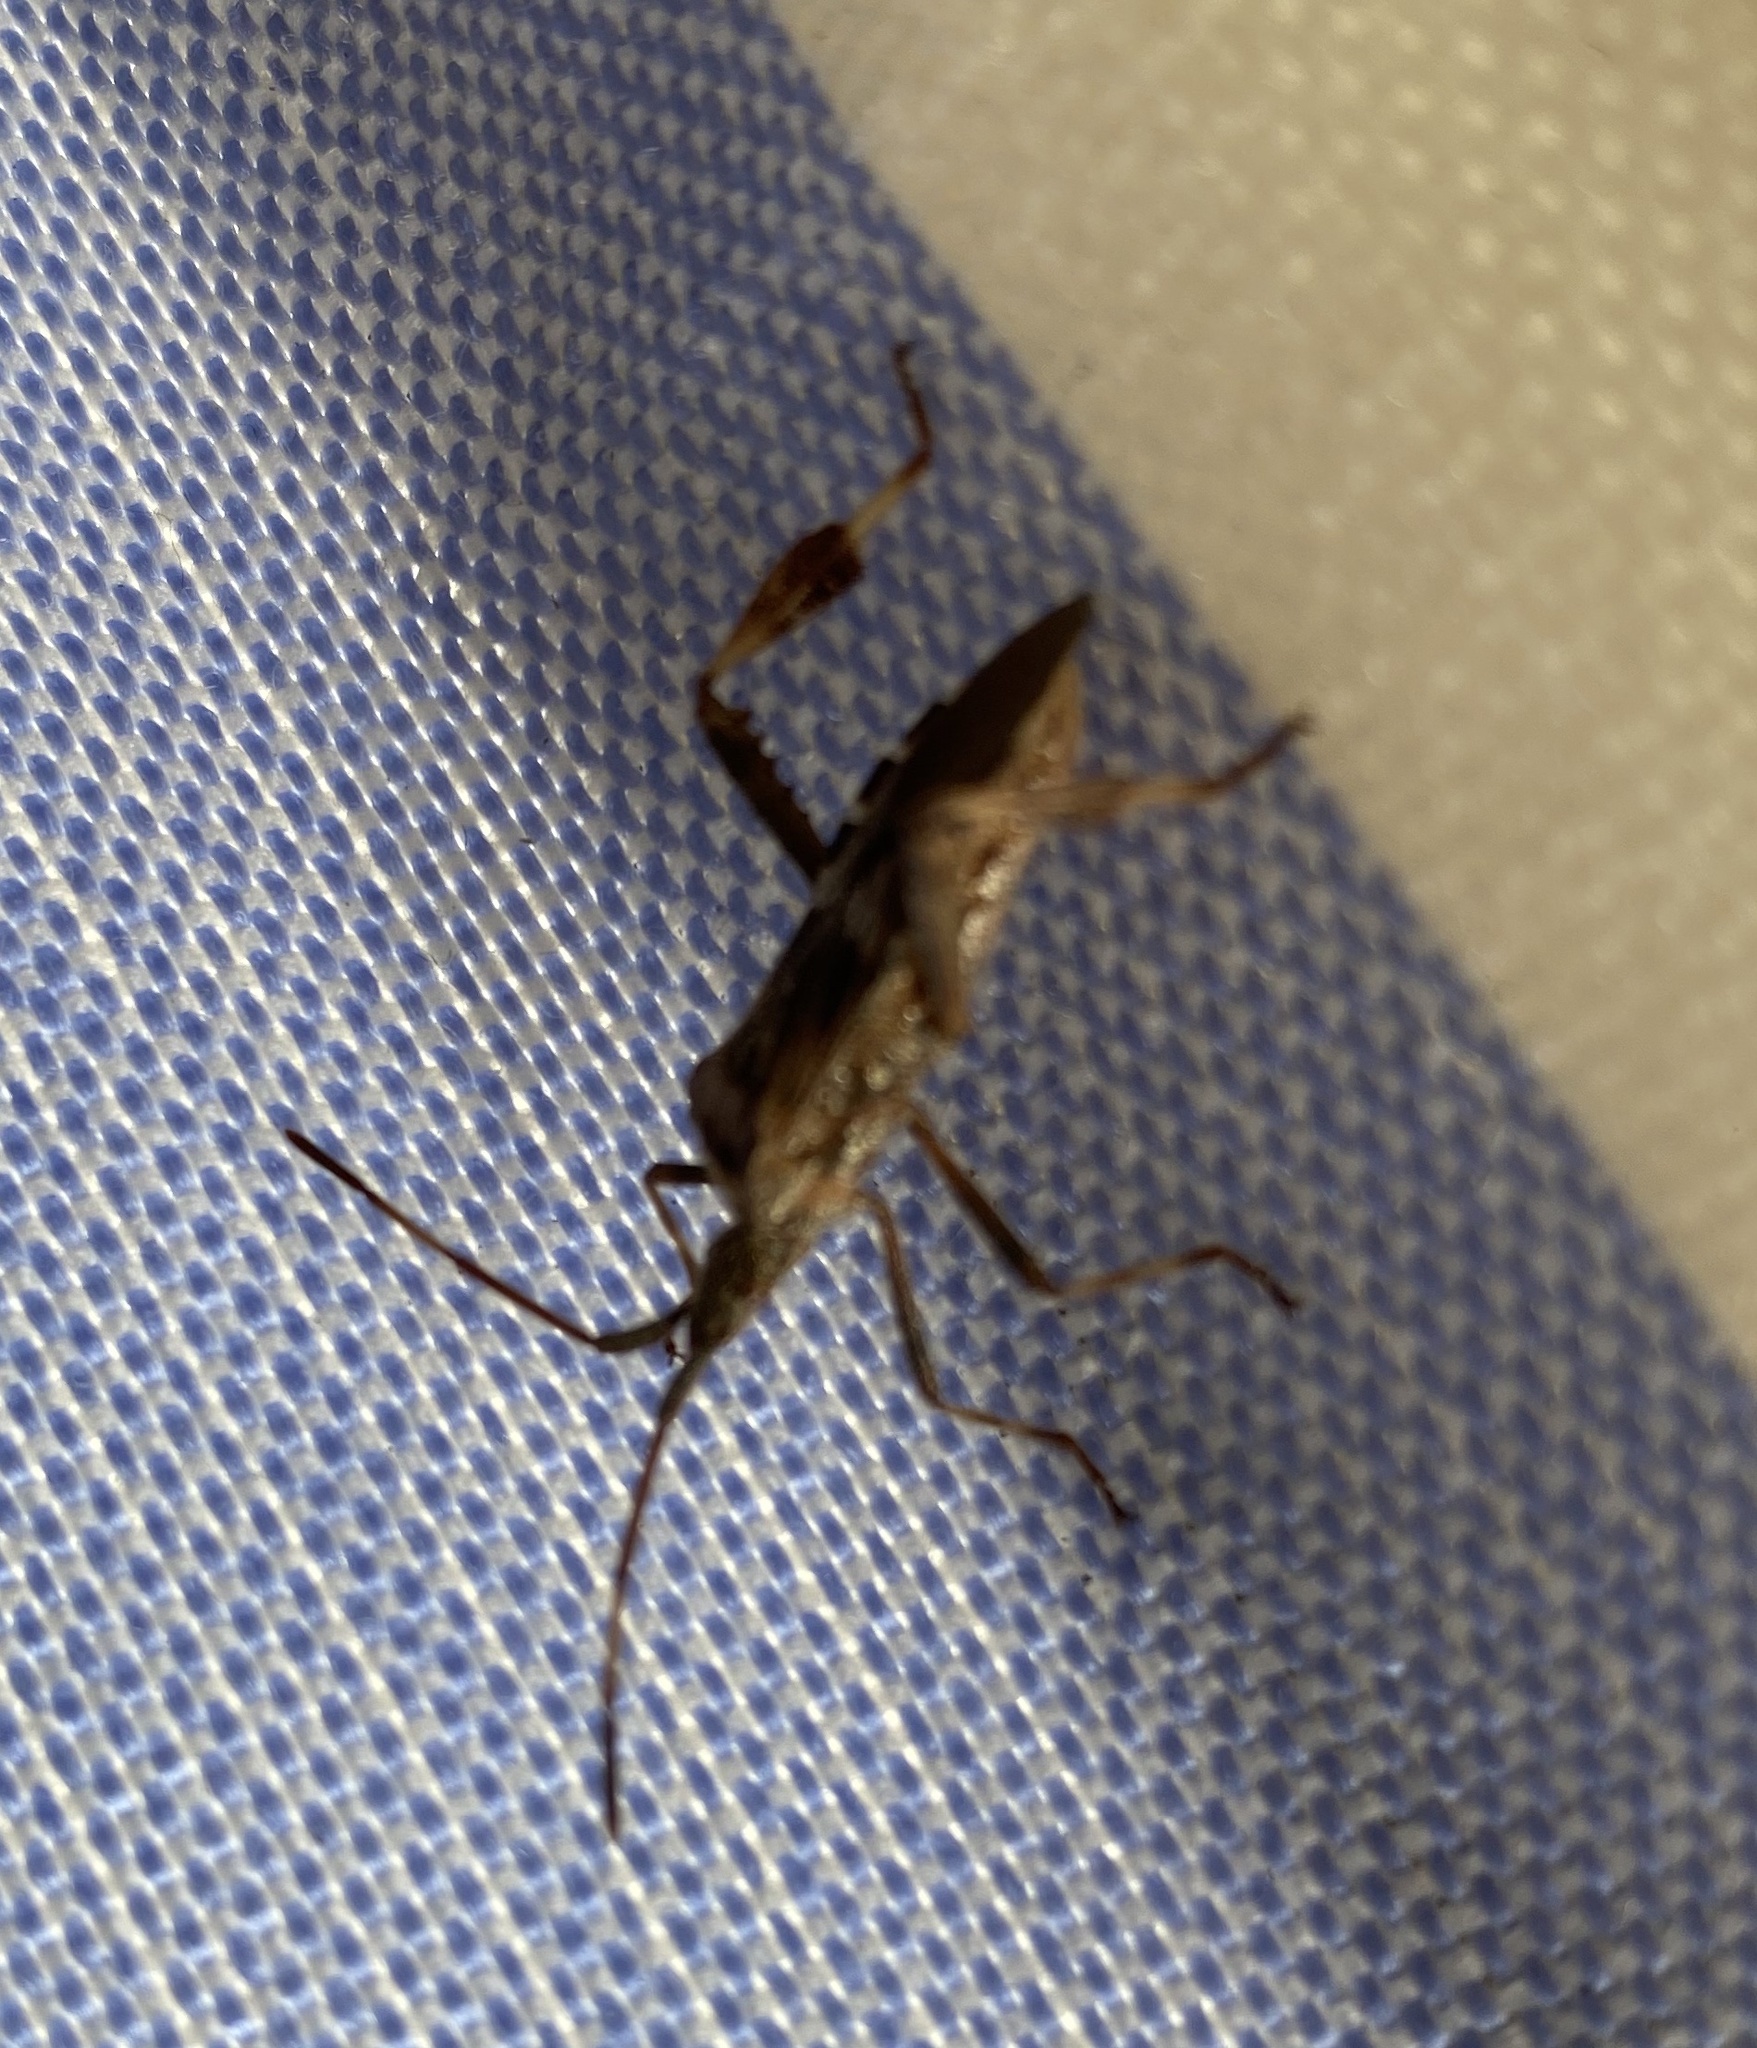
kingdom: Animalia
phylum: Arthropoda
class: Insecta
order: Hemiptera
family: Coreidae
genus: Leptoglossus
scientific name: Leptoglossus occidentalis
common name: Western conifer-seed bug
